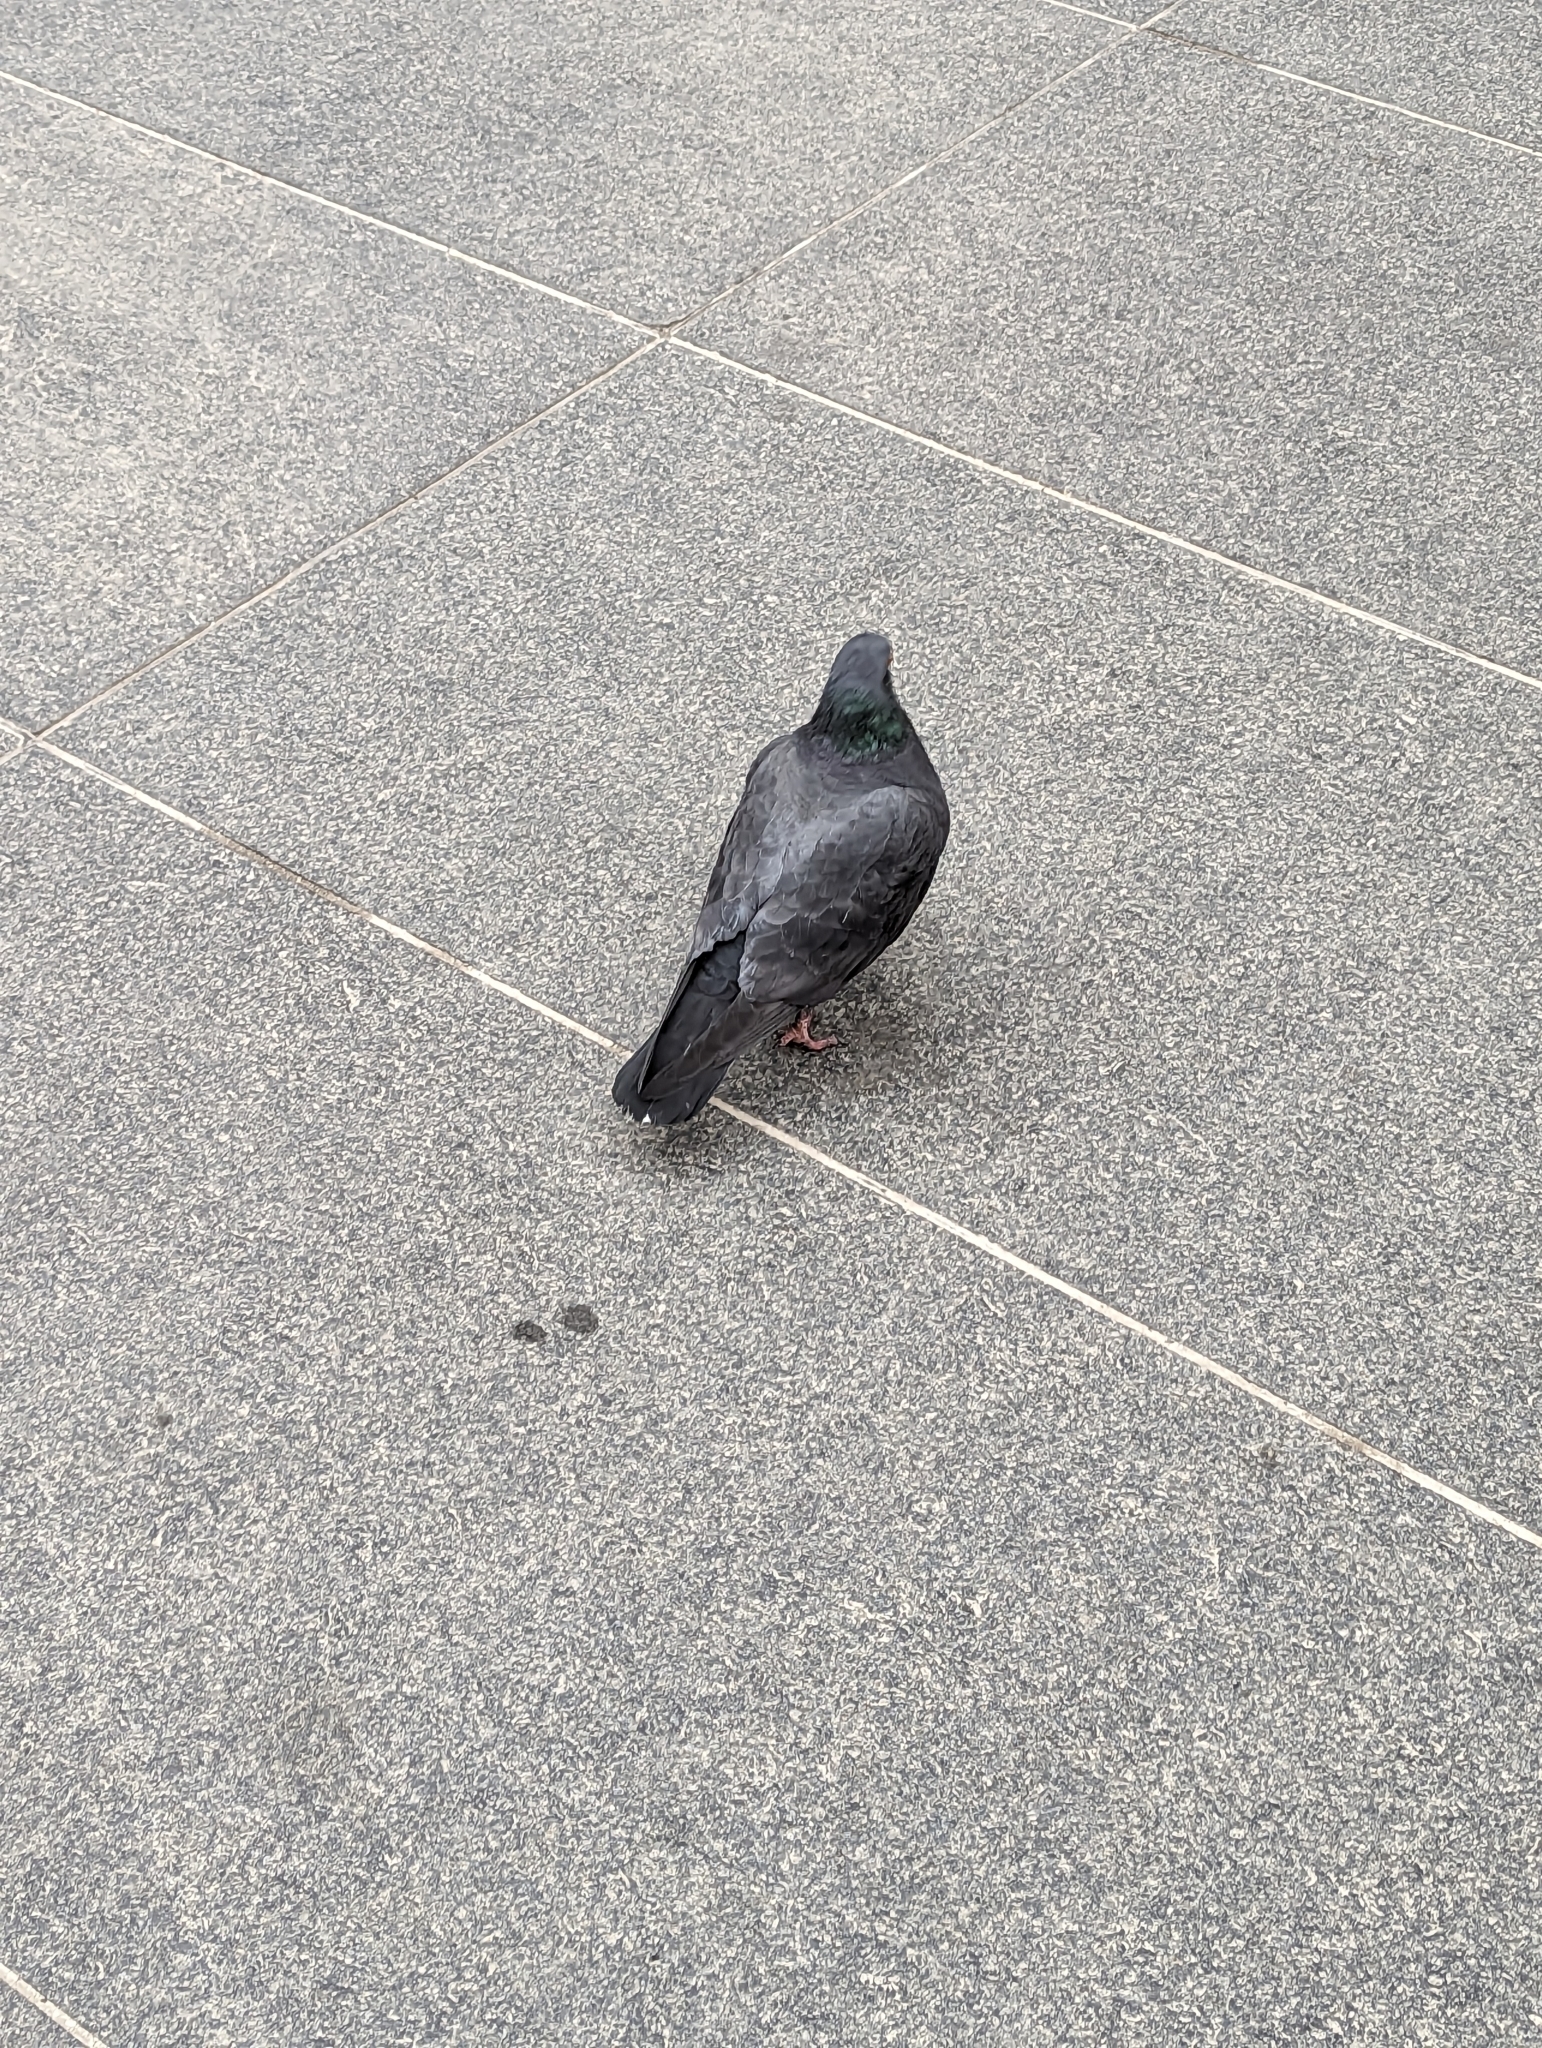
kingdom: Animalia
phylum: Chordata
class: Aves
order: Columbiformes
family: Columbidae
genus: Columba
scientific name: Columba livia
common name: Rock pigeon
